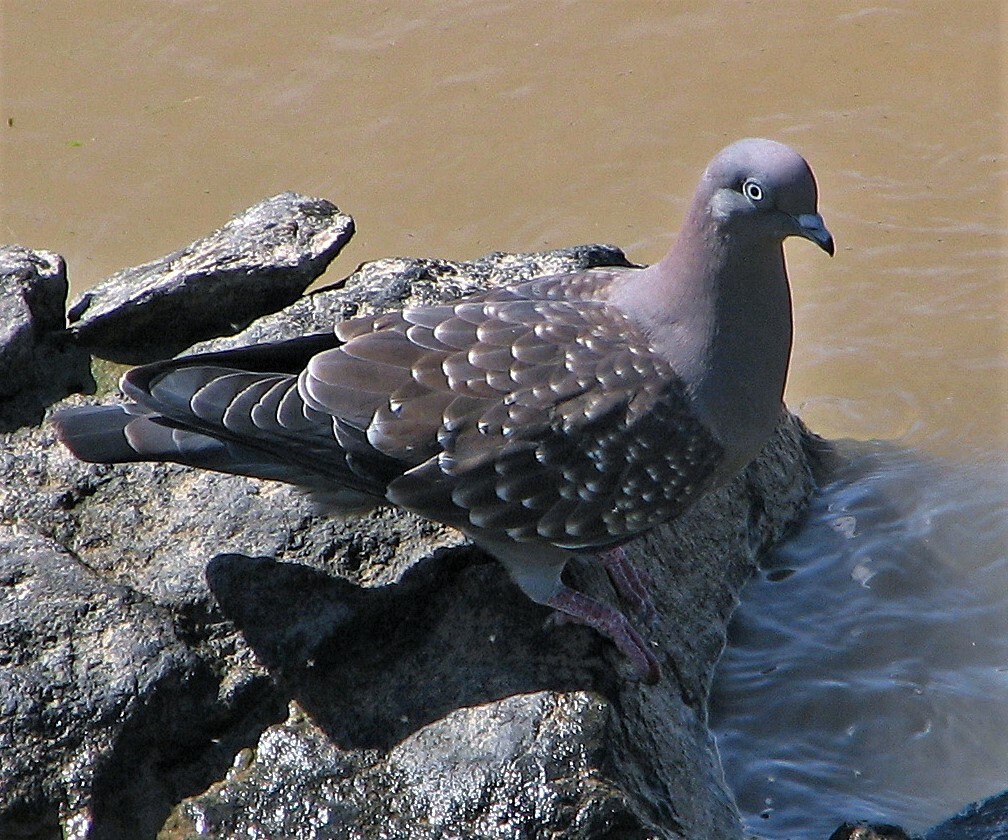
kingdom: Animalia
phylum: Chordata
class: Aves
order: Columbiformes
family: Columbidae
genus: Patagioenas
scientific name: Patagioenas maculosa
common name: Spot-winged pigeon
